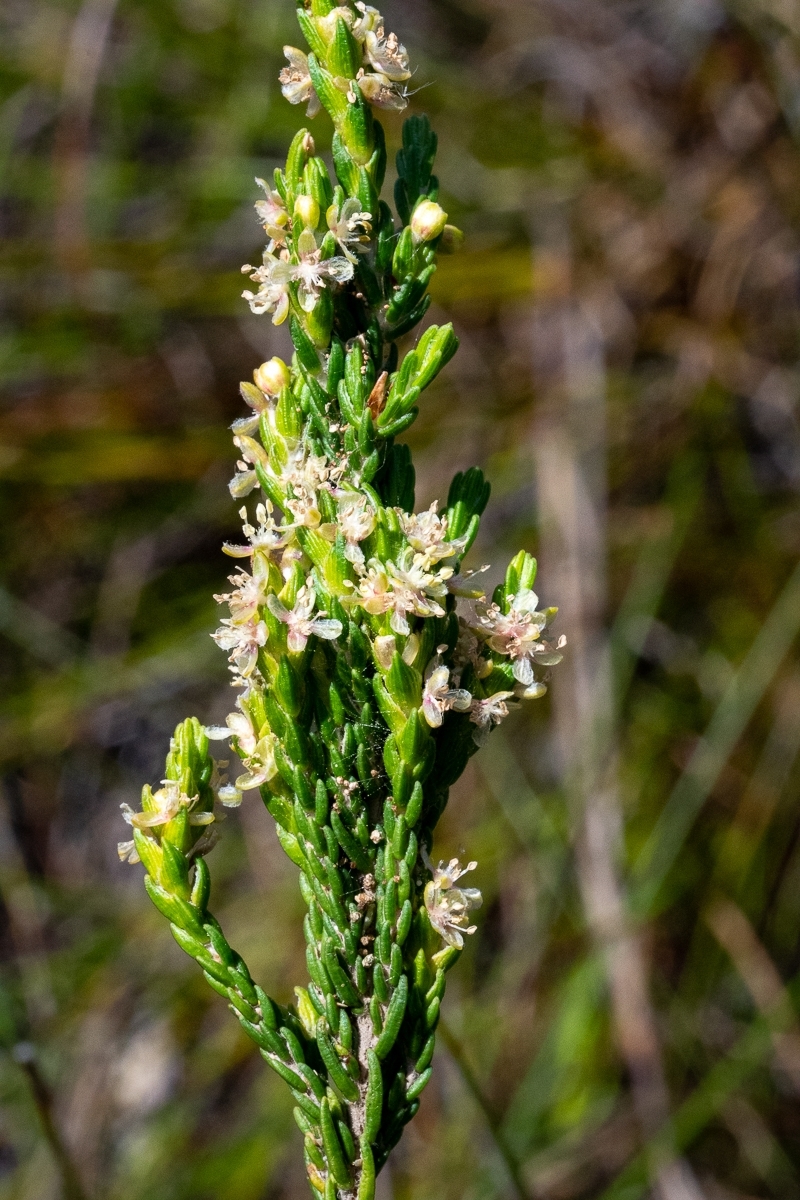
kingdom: Plantae
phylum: Tracheophyta
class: Magnoliopsida
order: Malvales
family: Thymelaeaceae
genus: Passerina
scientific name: Passerina corymbosa
